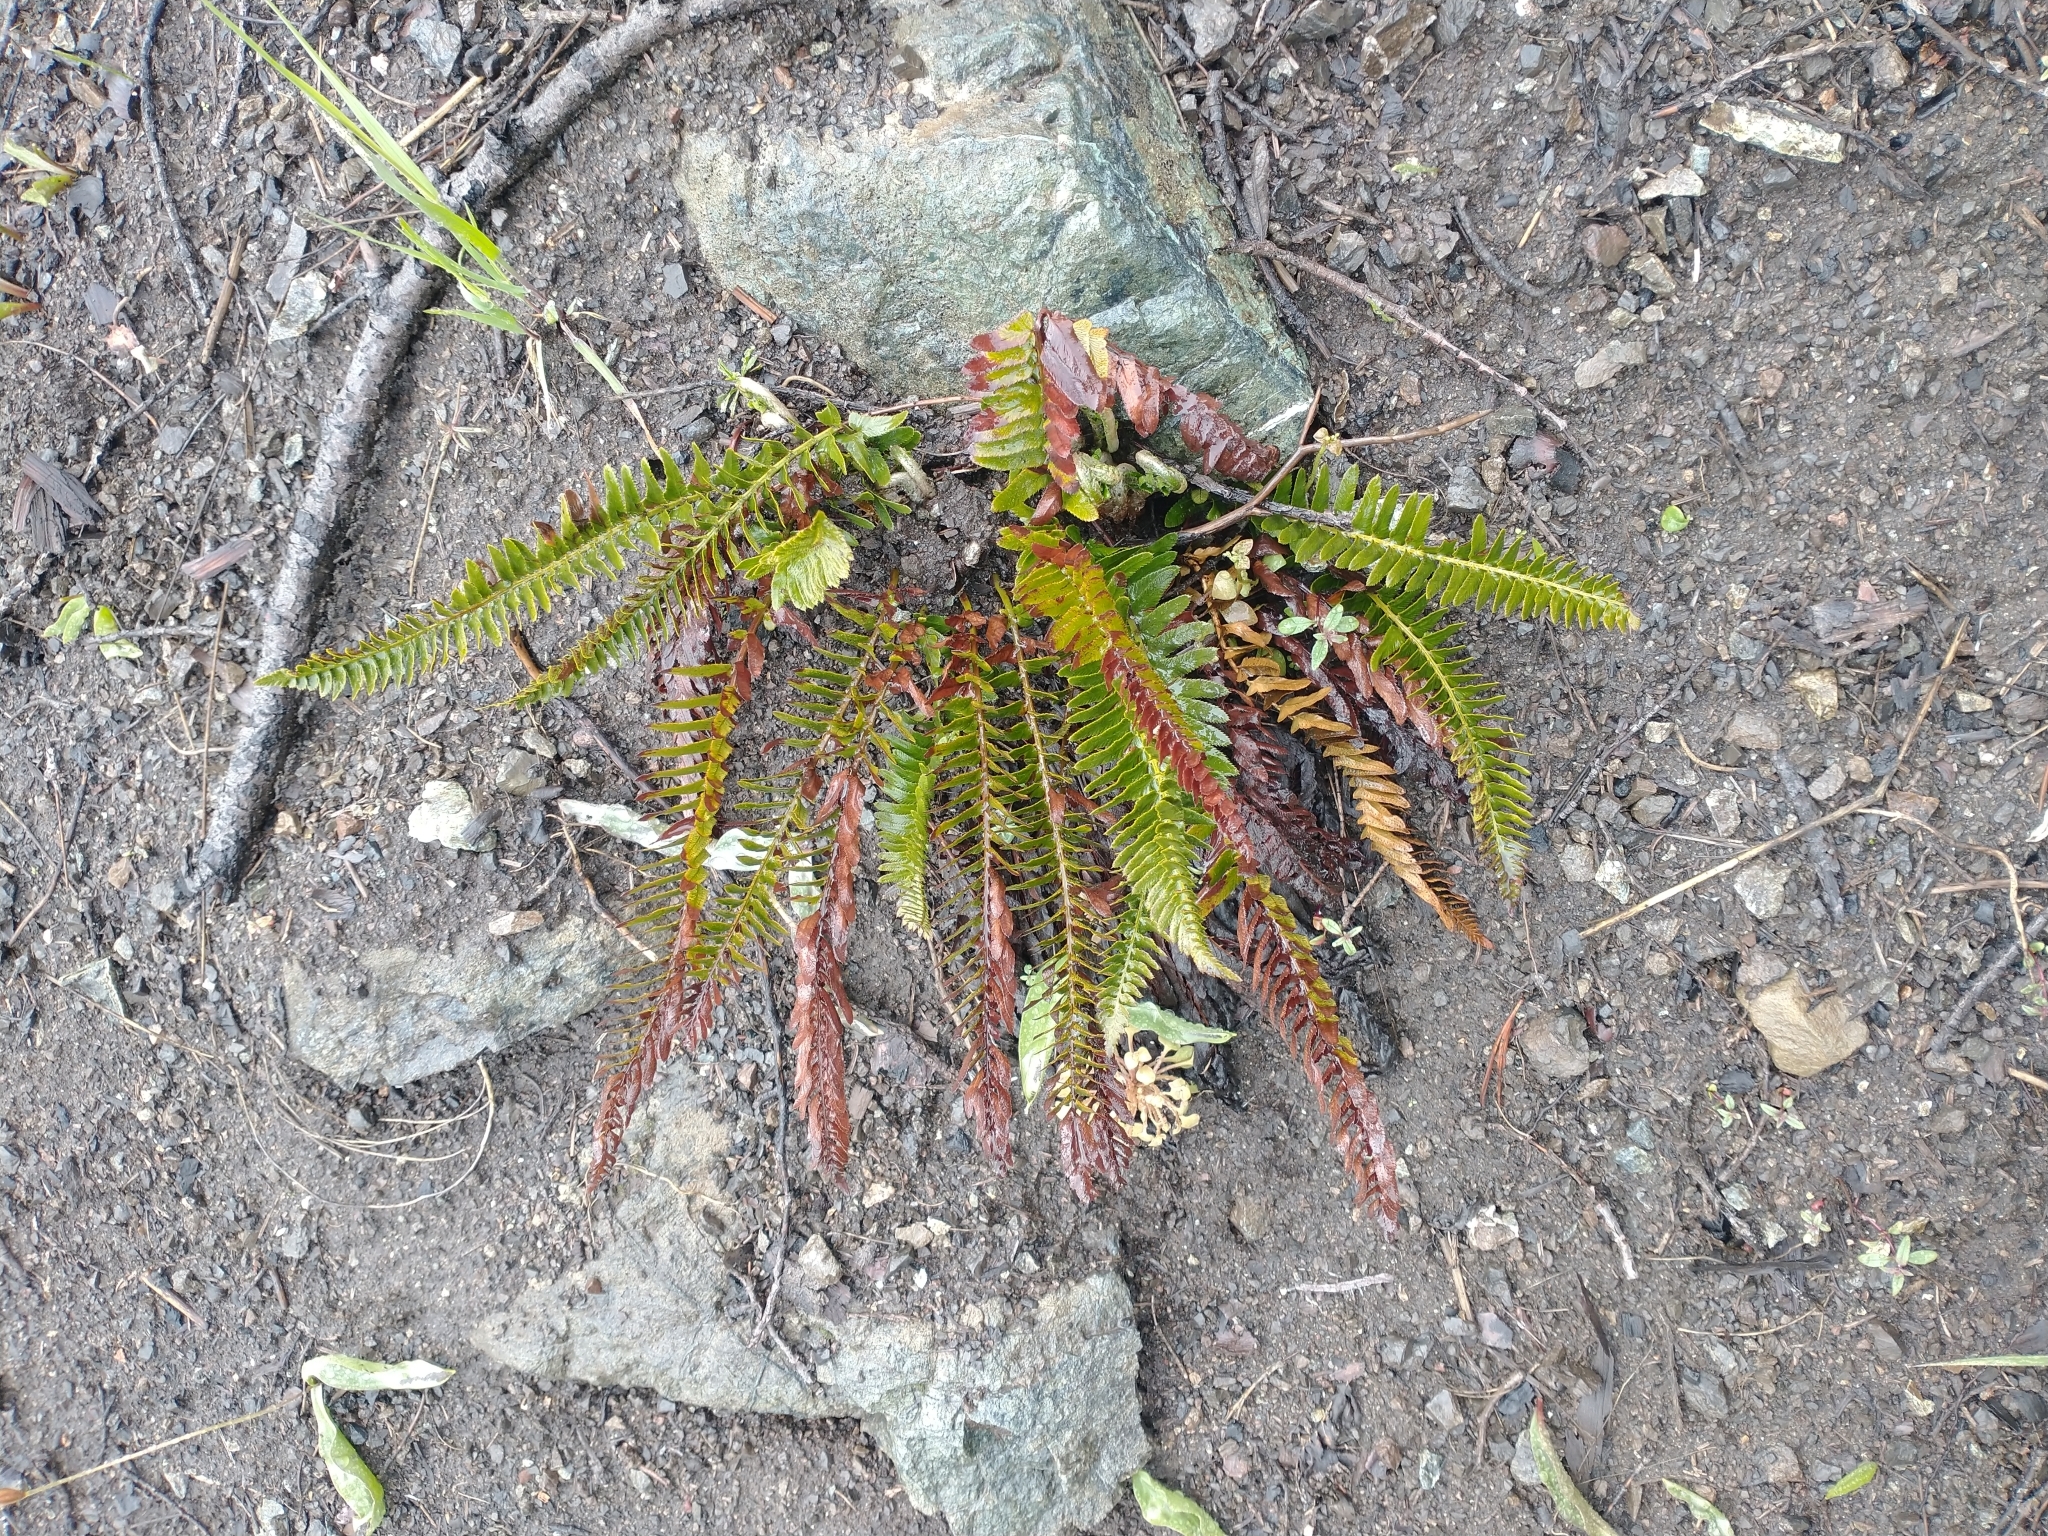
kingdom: Plantae
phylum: Tracheophyta
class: Polypodiopsida
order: Polypodiales
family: Dryopteridaceae
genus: Polystichum
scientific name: Polystichum imbricans
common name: Dwarf western sword fern
